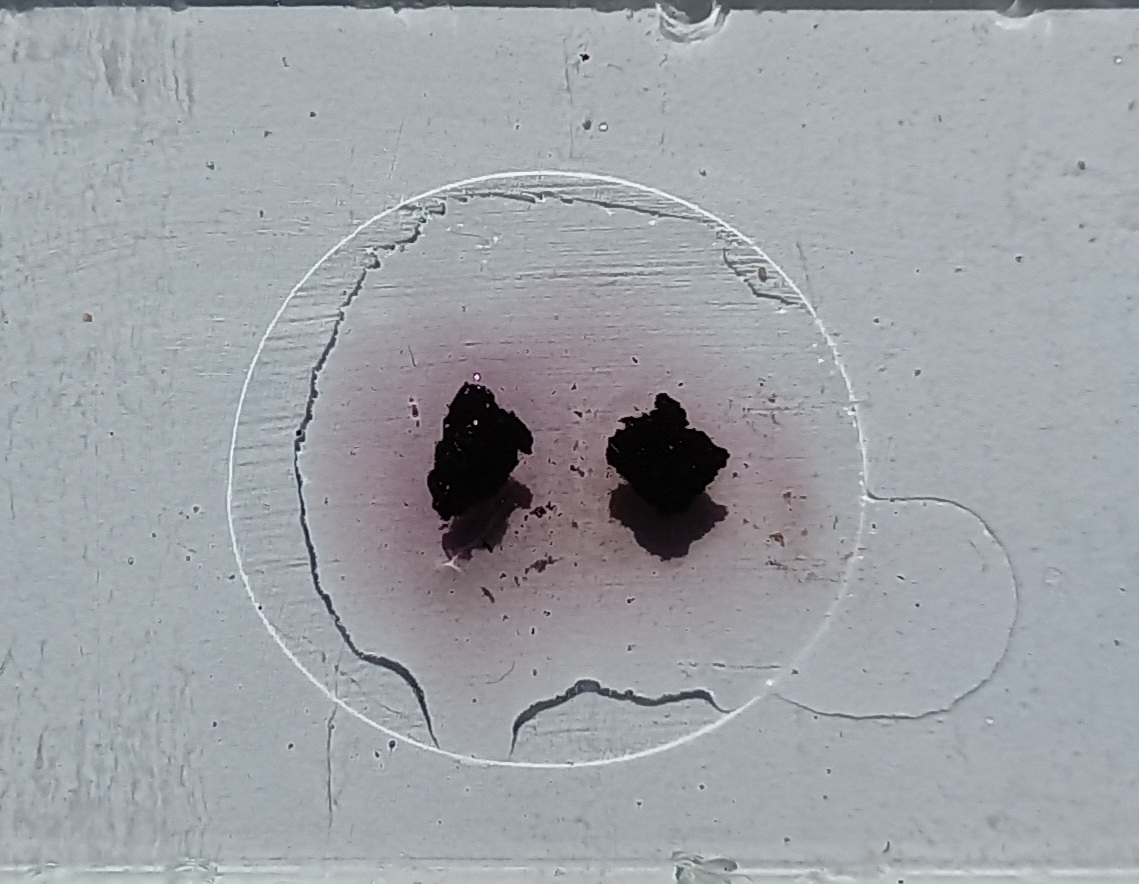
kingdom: Fungi
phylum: Ascomycota
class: Sordariomycetes
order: Xylariales
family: Hypoxylaceae
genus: Daldinia
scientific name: Daldinia petriniae
